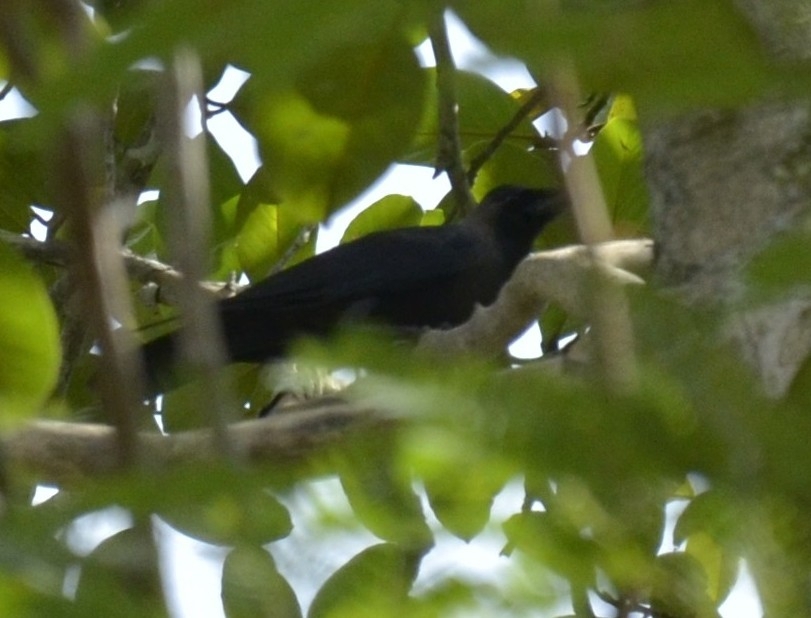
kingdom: Animalia
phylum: Chordata
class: Aves
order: Passeriformes
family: Corvidae
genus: Corvus
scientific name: Corvus splendens
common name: House crow
